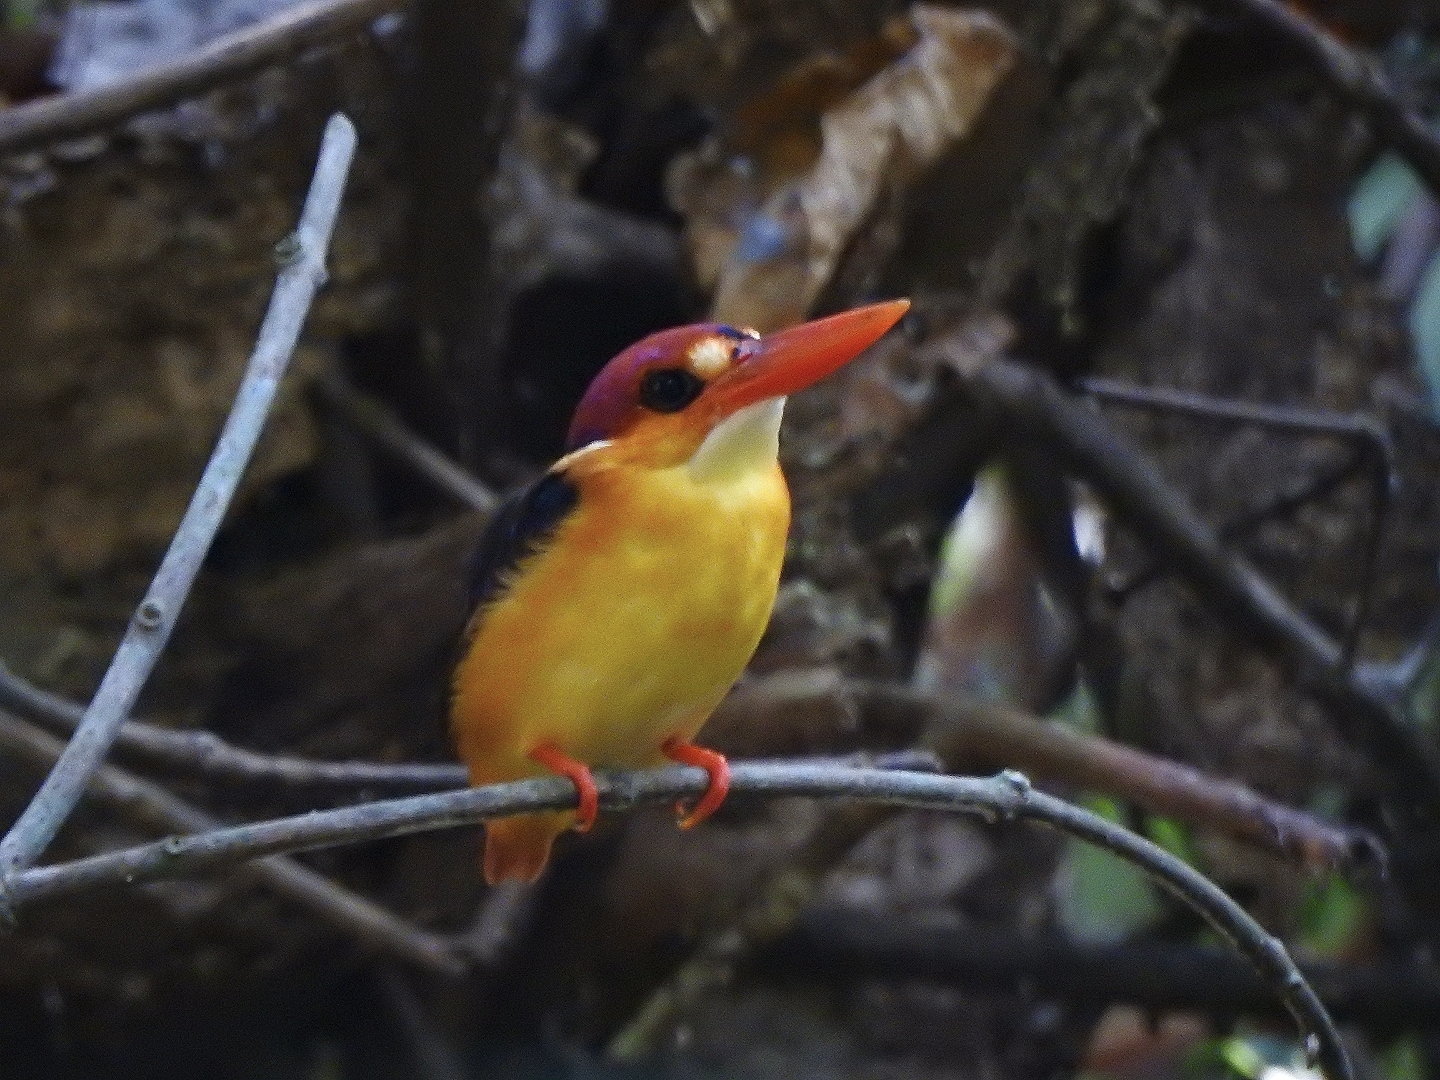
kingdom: Animalia
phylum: Chordata
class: Aves
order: Coraciiformes
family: Alcedinidae
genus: Ceyx
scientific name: Ceyx erithaca
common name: Oriental dwarf kingfisher
